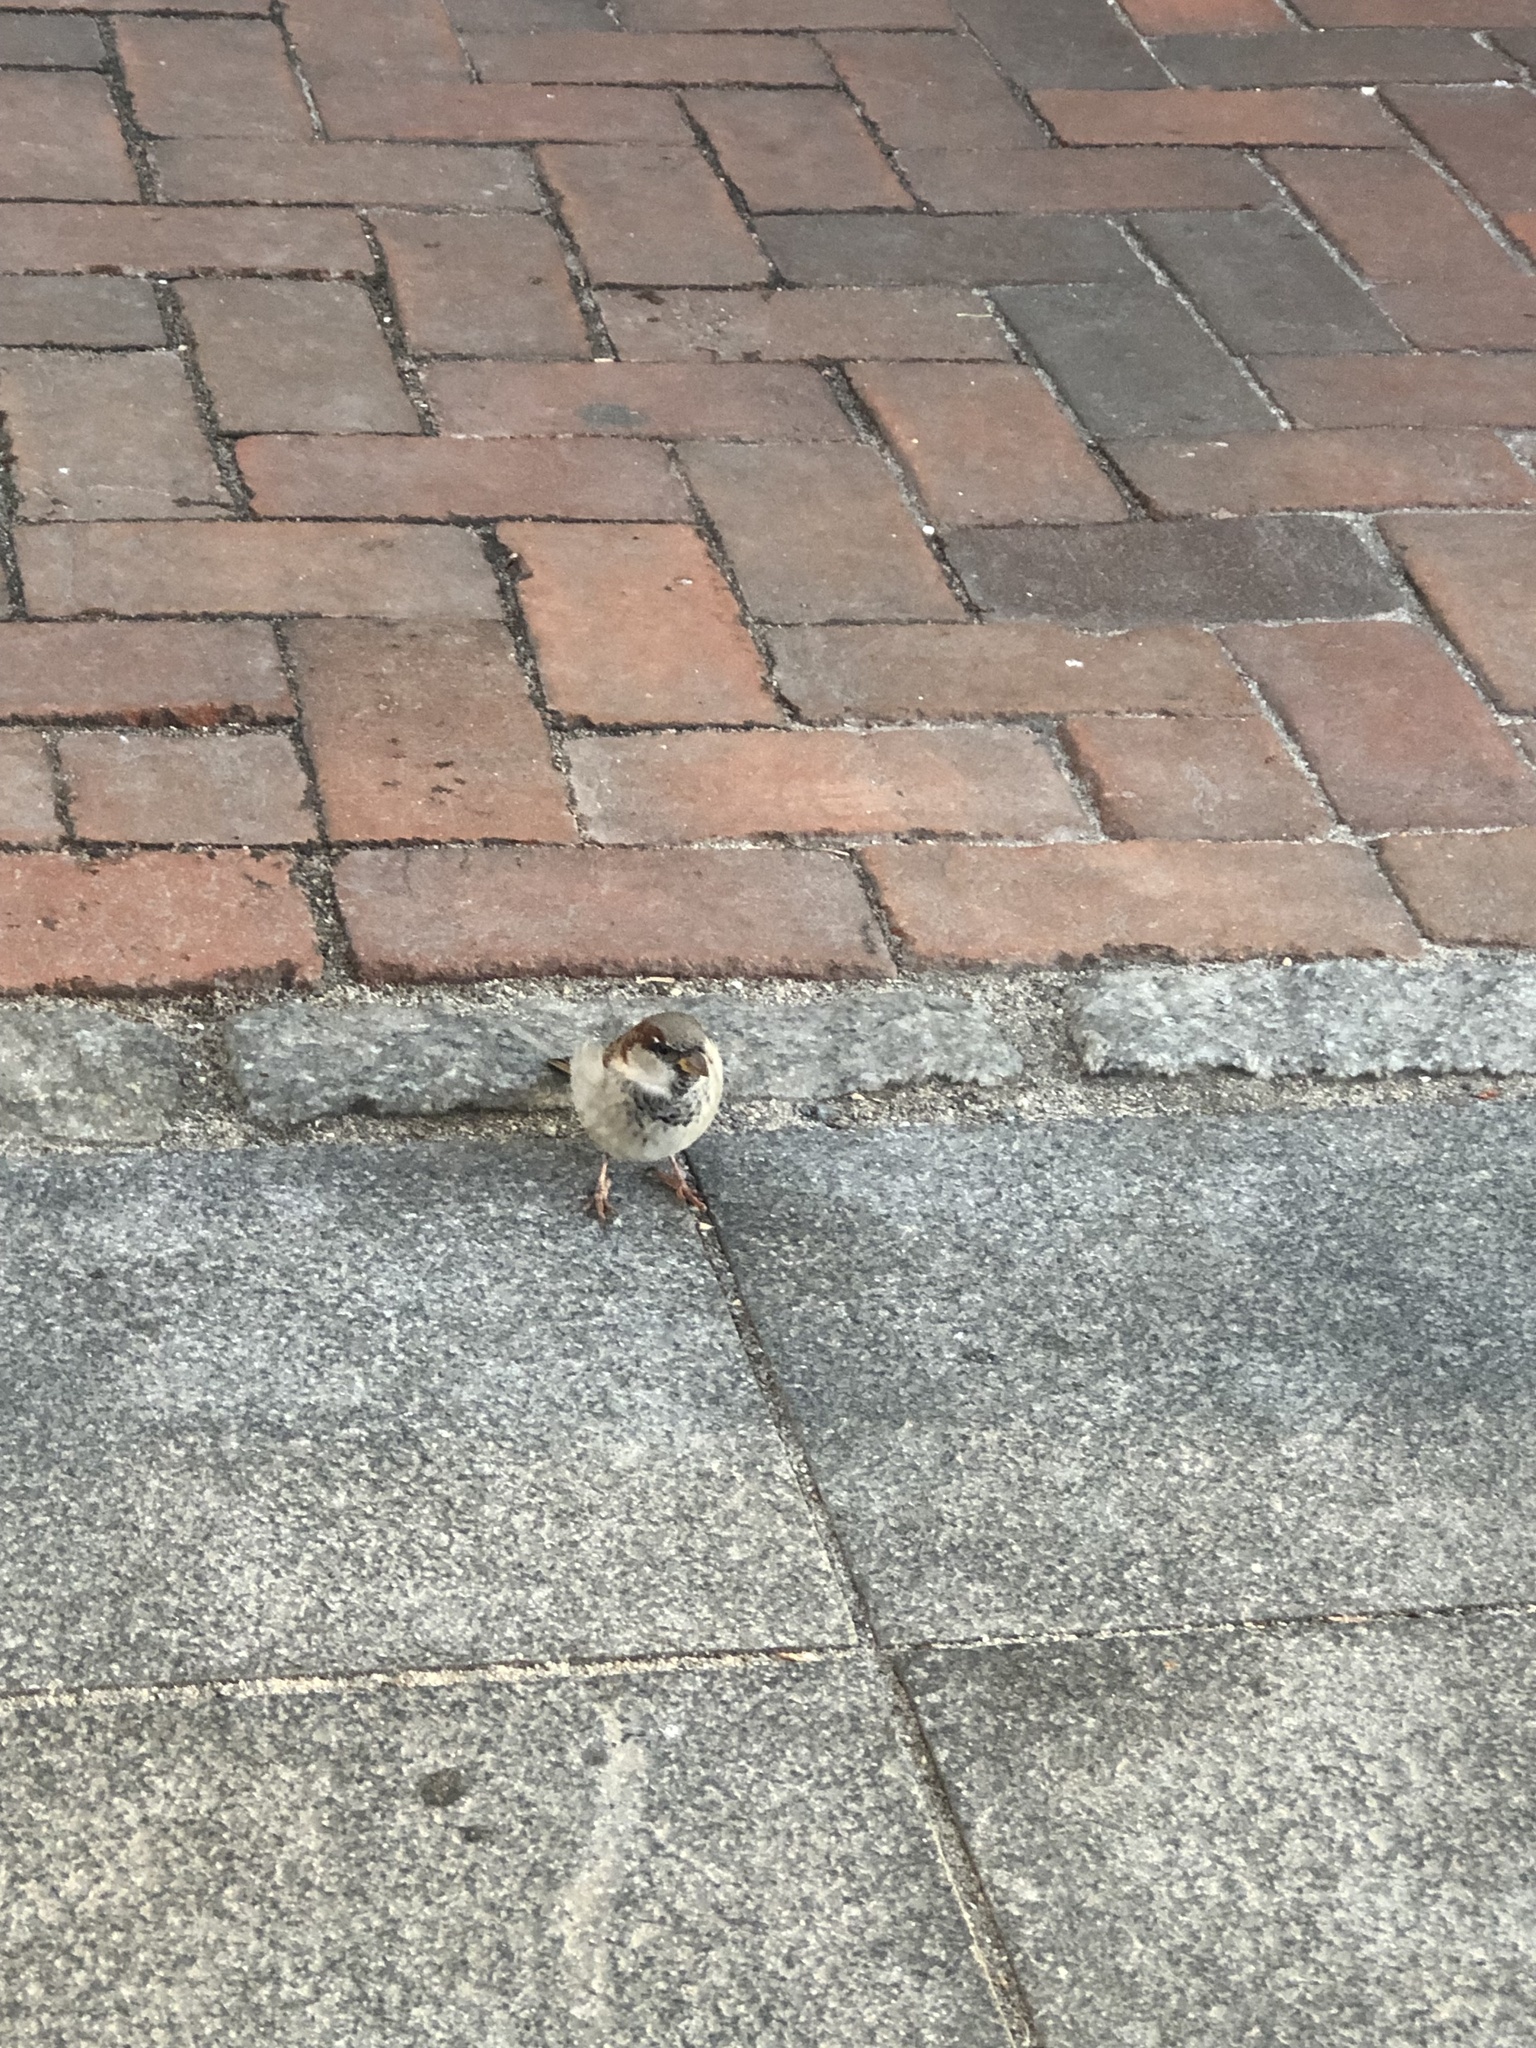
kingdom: Animalia
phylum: Chordata
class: Aves
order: Passeriformes
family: Passeridae
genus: Passer
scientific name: Passer domesticus
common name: House sparrow
